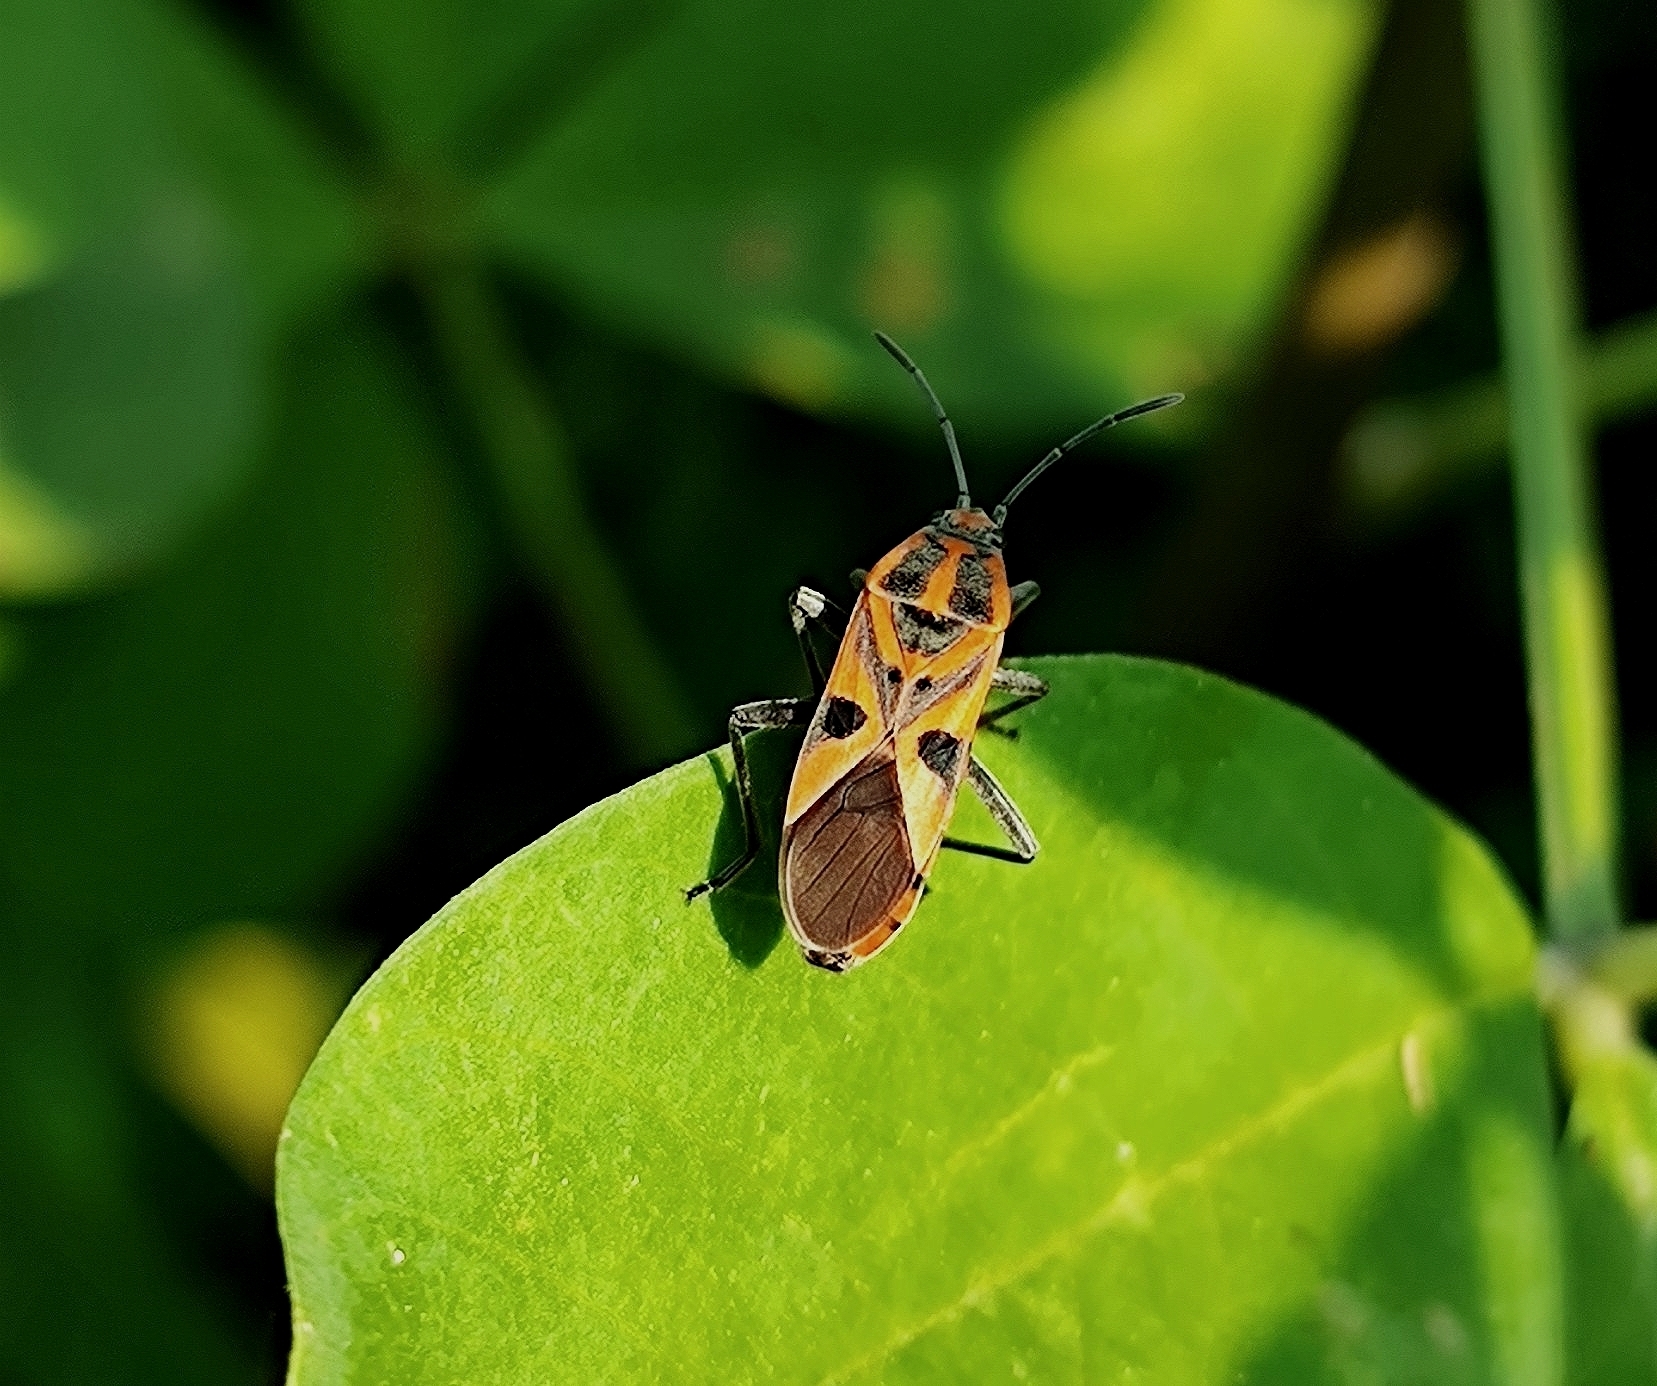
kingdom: Animalia
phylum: Arthropoda
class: Insecta
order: Hemiptera
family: Lygaeidae
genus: Spilostethus
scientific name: Spilostethus hospes
